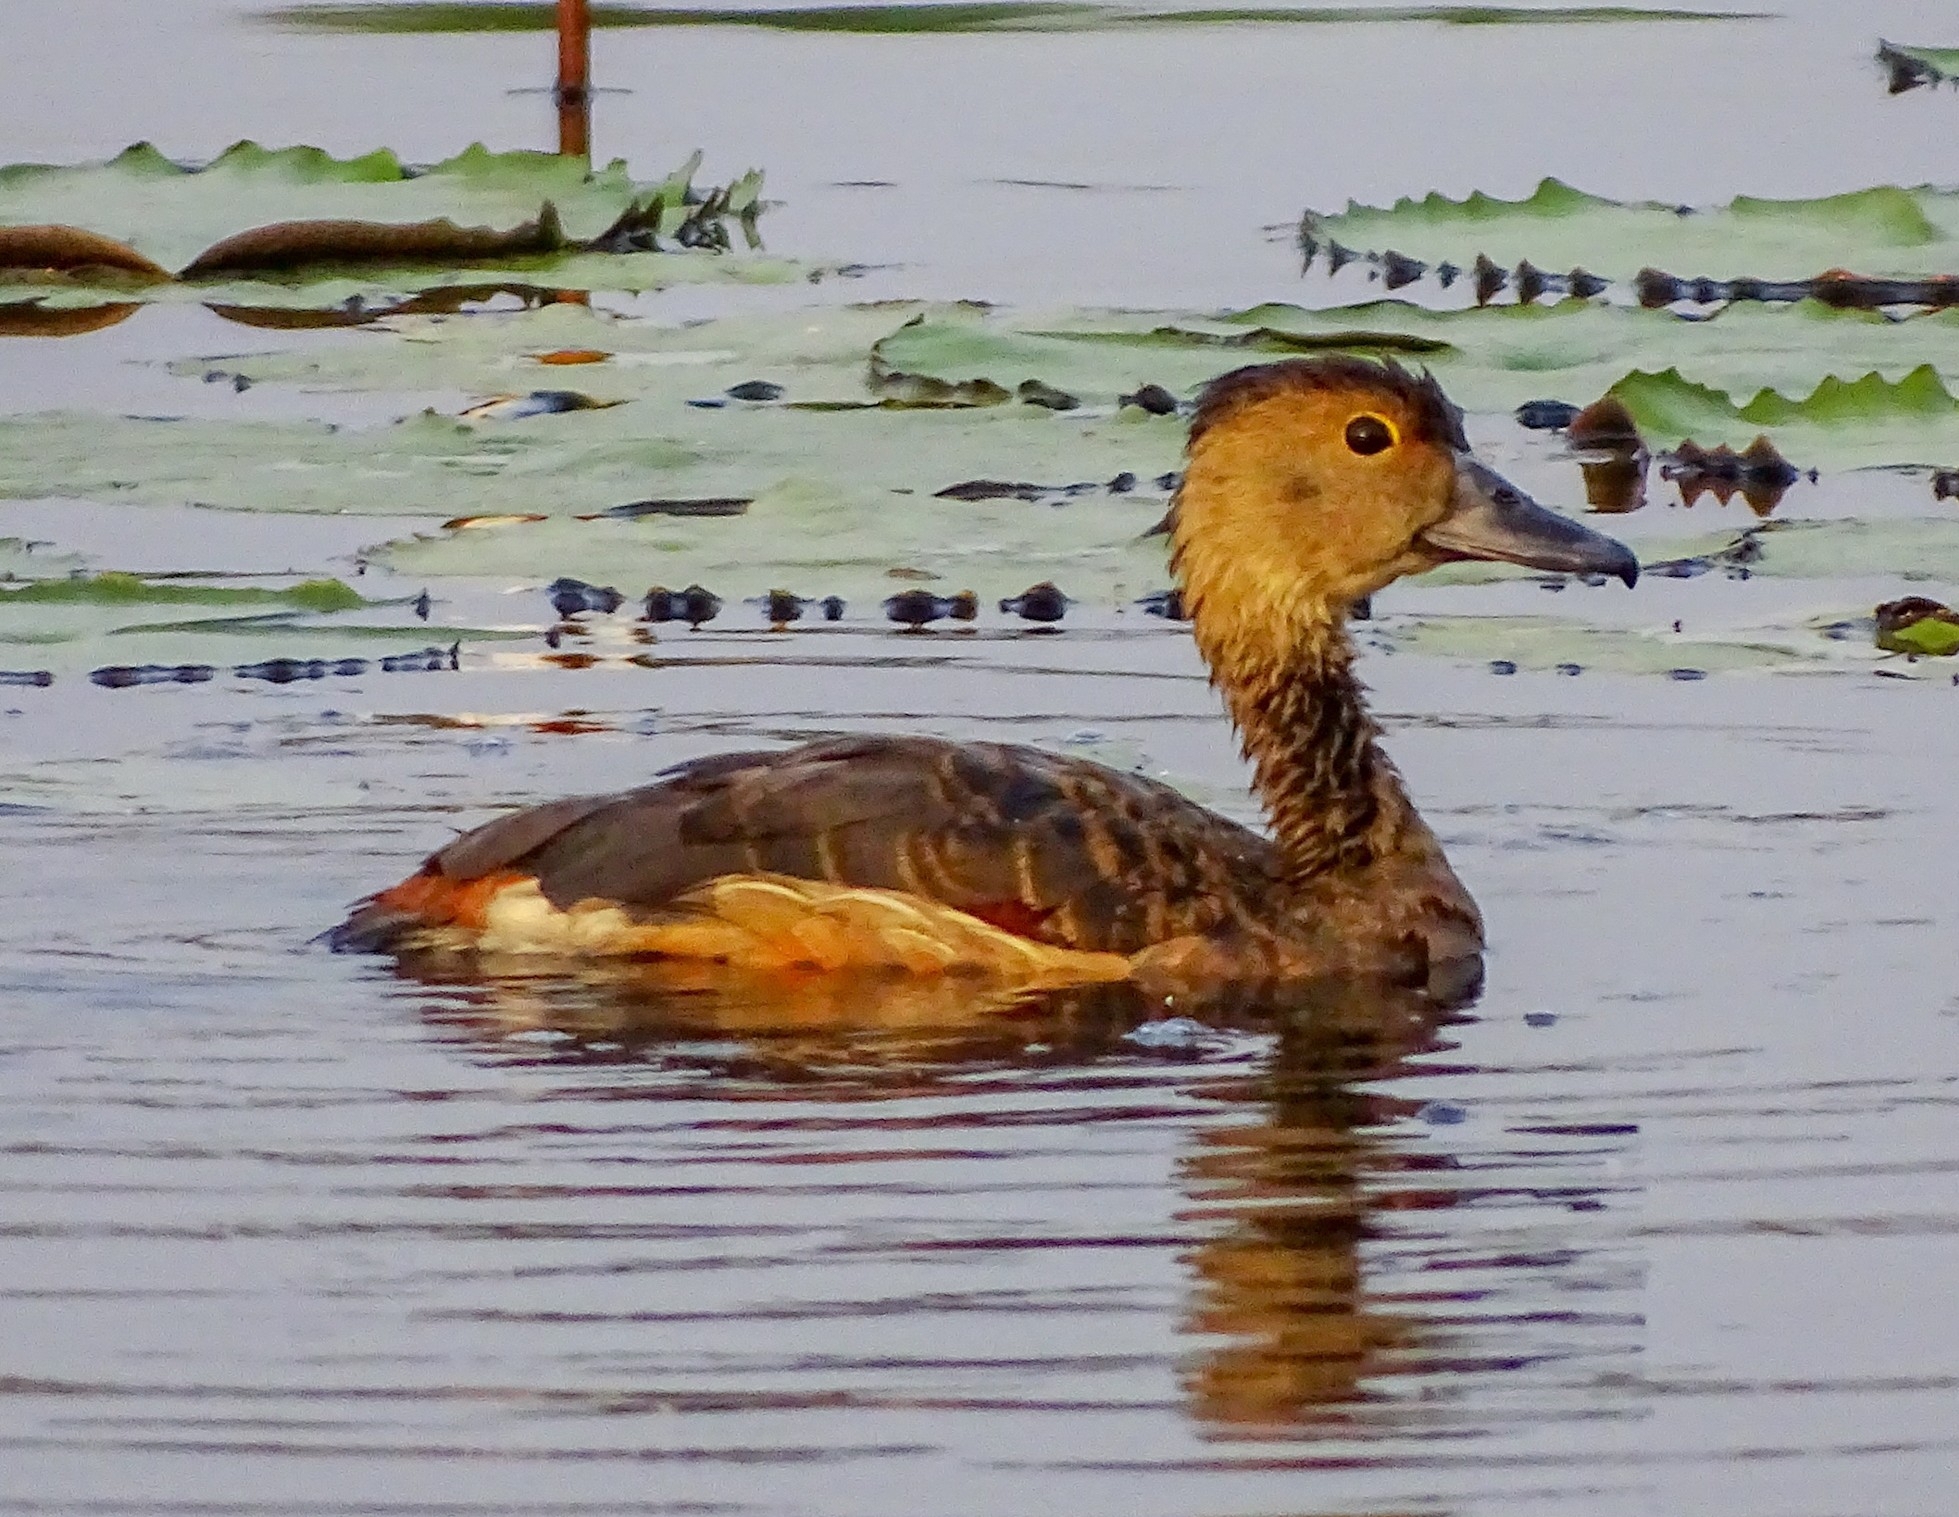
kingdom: Animalia
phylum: Chordata
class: Aves
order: Anseriformes
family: Anatidae
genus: Dendrocygna
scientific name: Dendrocygna javanica
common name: Lesser whistling-duck
